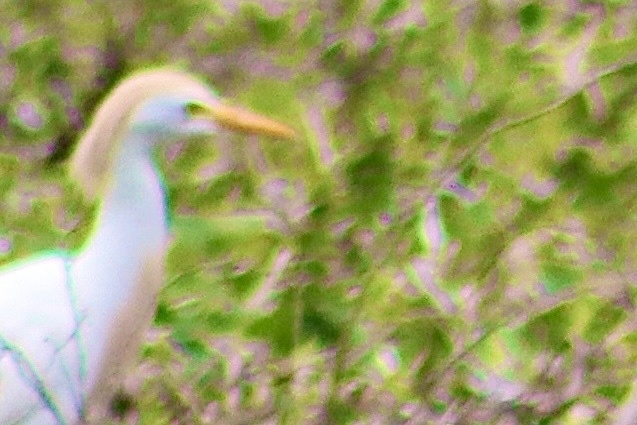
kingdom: Animalia
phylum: Chordata
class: Aves
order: Pelecaniformes
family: Ardeidae
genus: Bubulcus
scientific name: Bubulcus ibis
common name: Cattle egret
